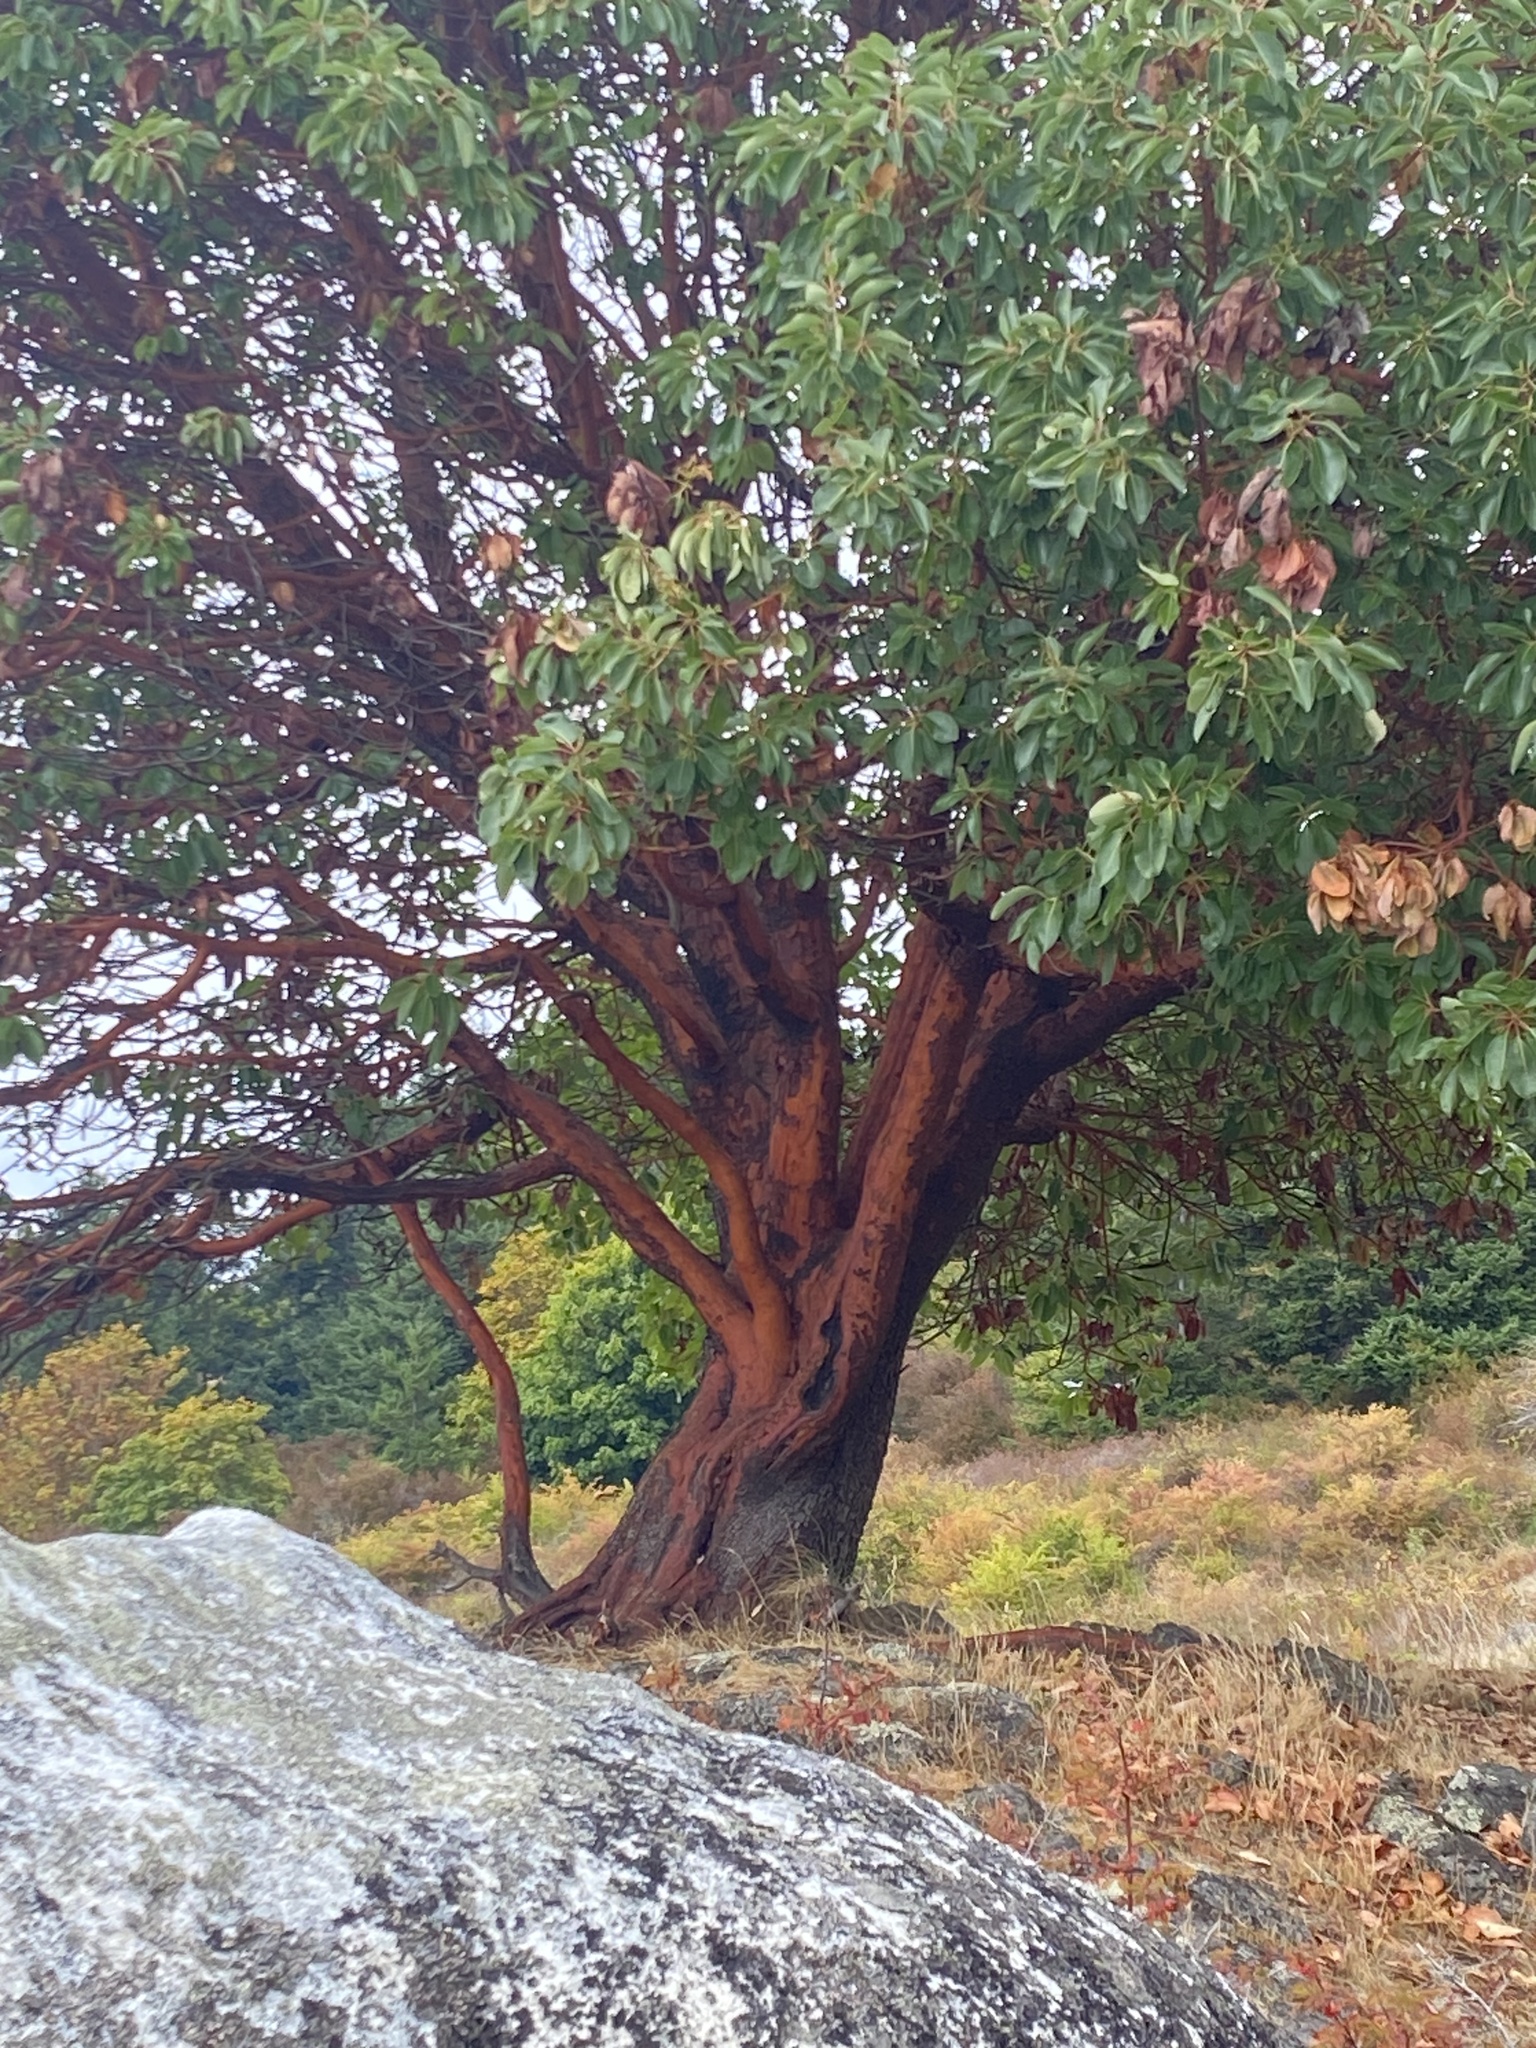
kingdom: Plantae
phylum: Tracheophyta
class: Magnoliopsida
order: Ericales
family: Ericaceae
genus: Arbutus
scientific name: Arbutus menziesii
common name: Pacific madrone
